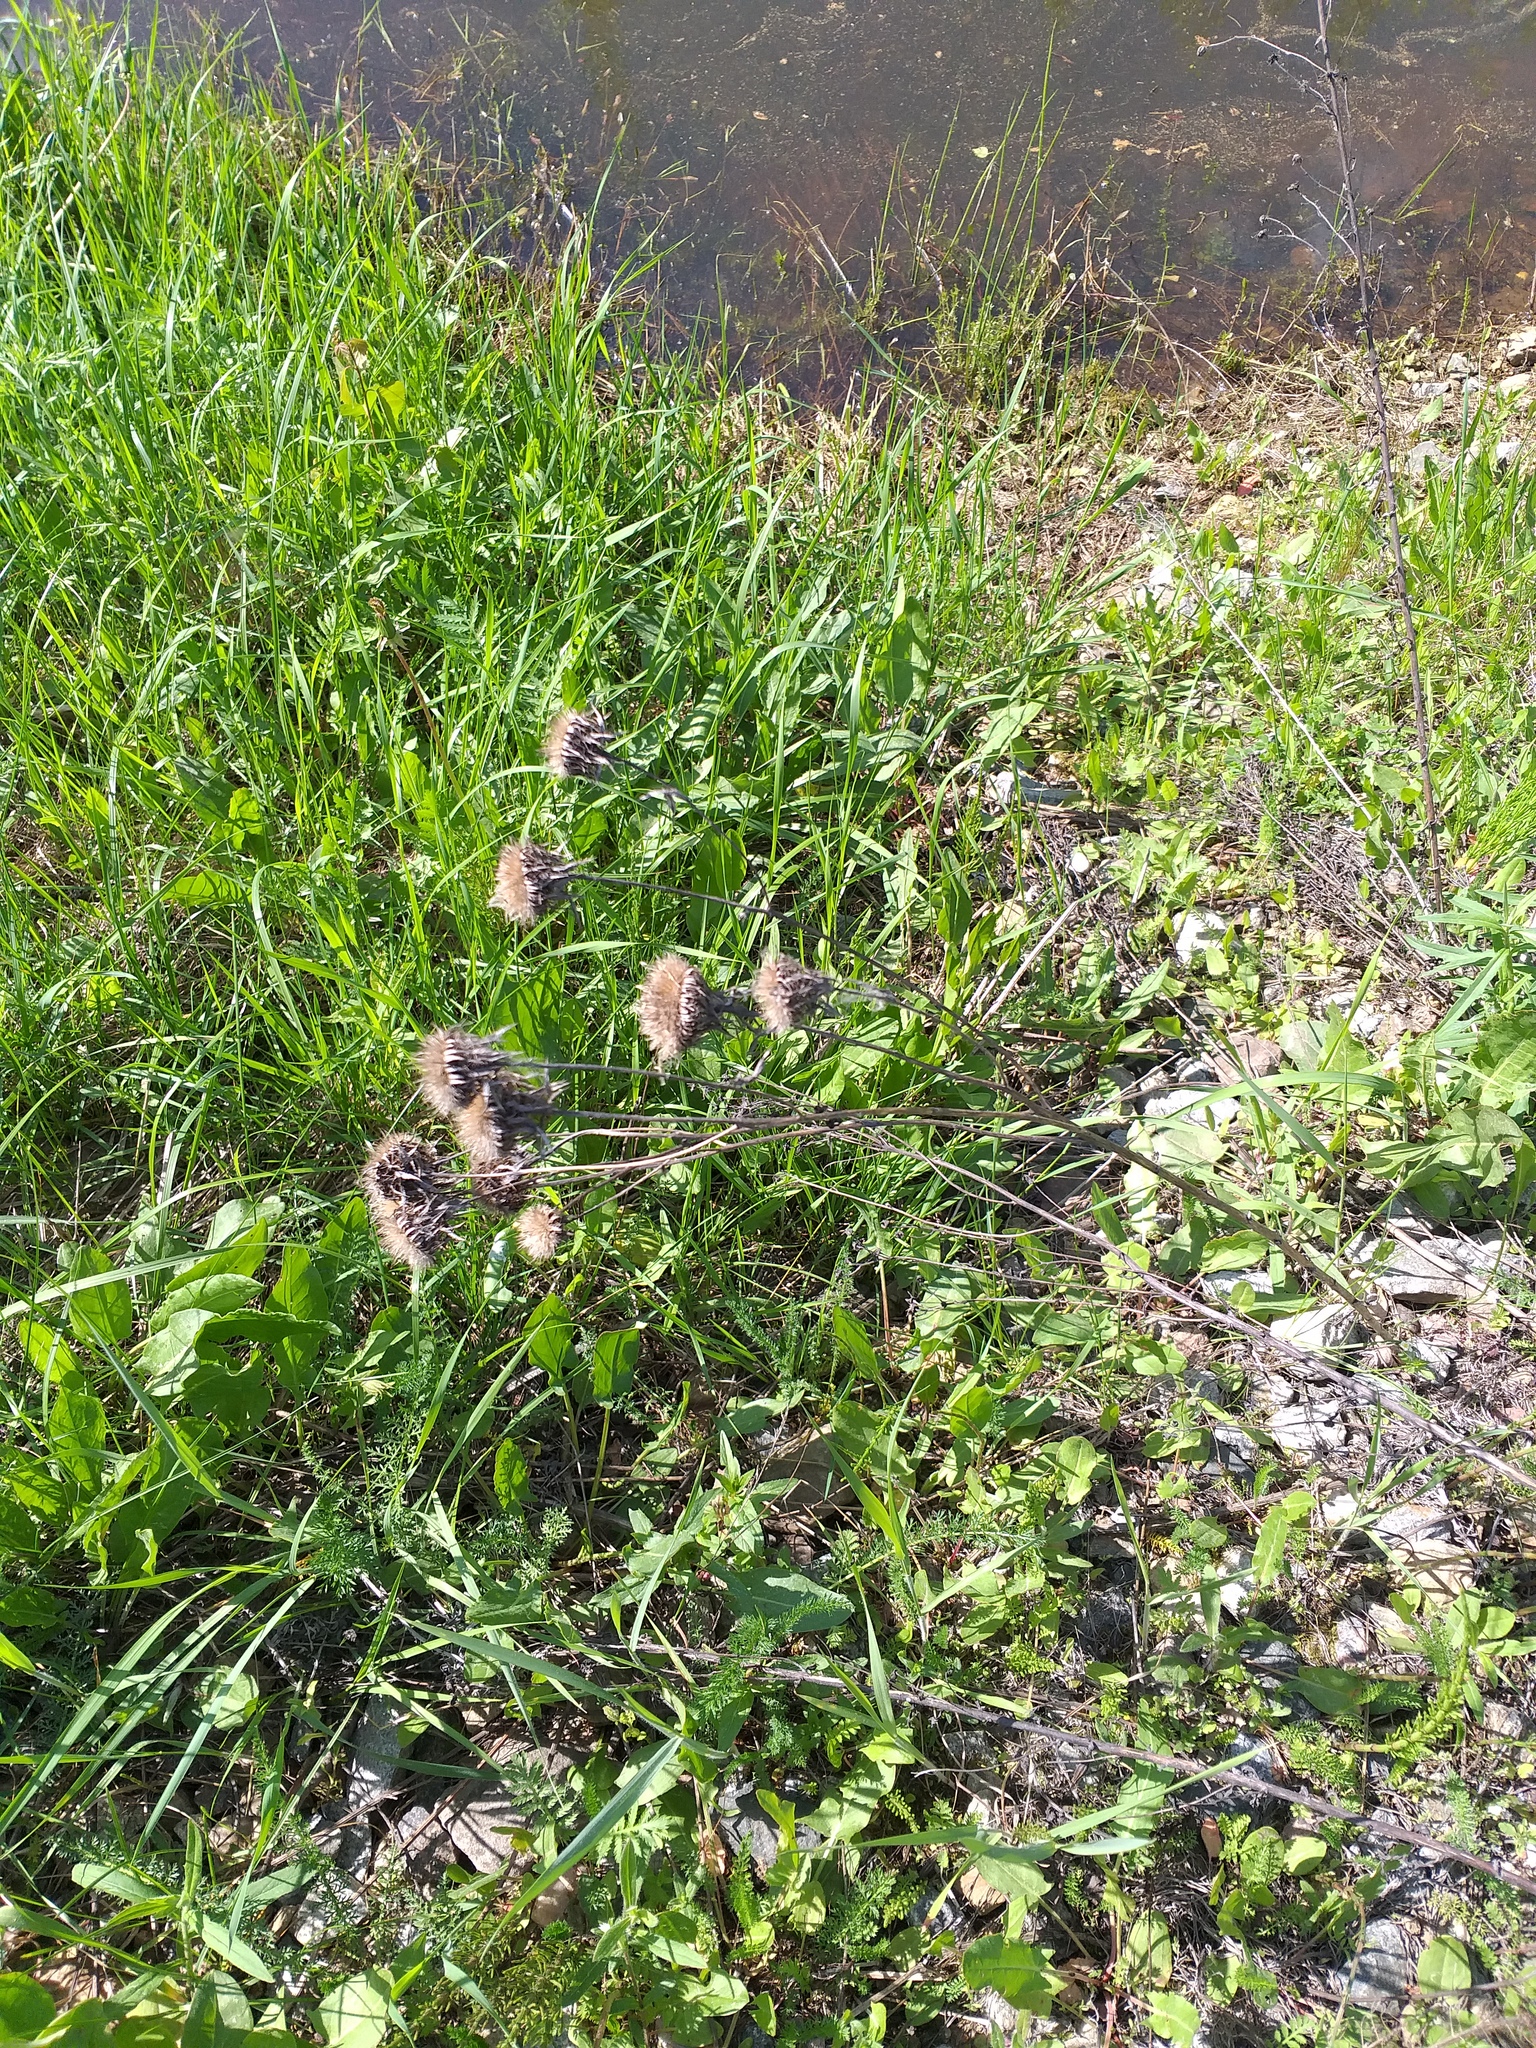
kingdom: Plantae
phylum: Tracheophyta
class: Magnoliopsida
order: Asterales
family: Asteraceae
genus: Carlina
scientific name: Carlina biebersteinii
